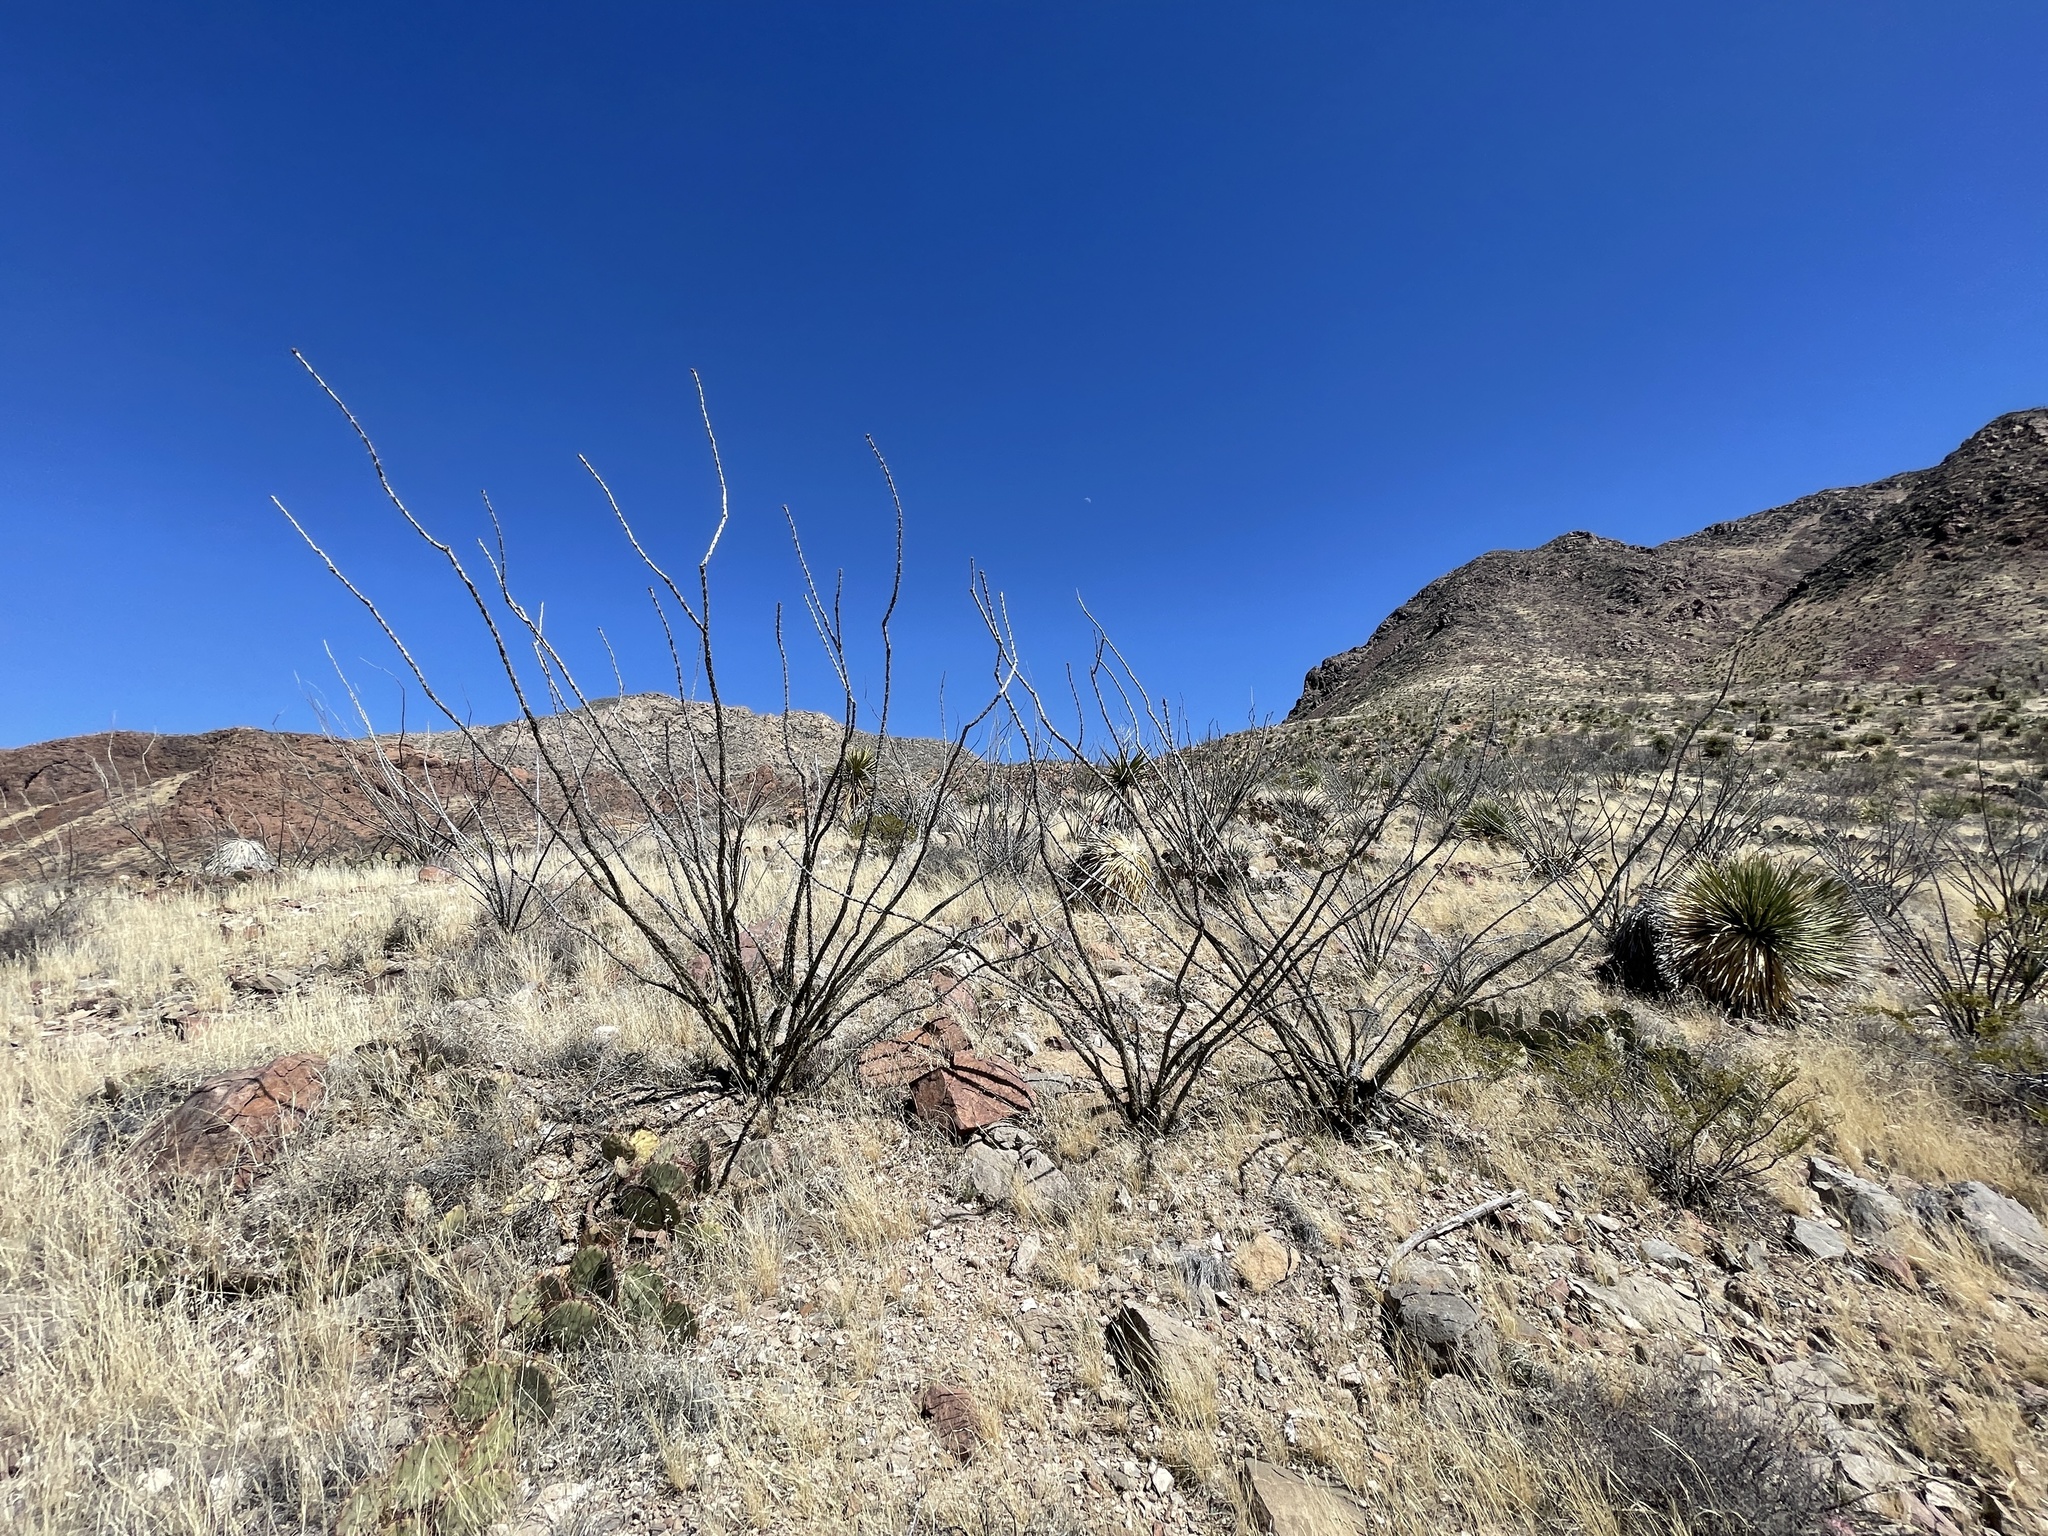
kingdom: Plantae
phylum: Tracheophyta
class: Magnoliopsida
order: Ericales
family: Fouquieriaceae
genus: Fouquieria
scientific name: Fouquieria splendens
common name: Vine-cactus
